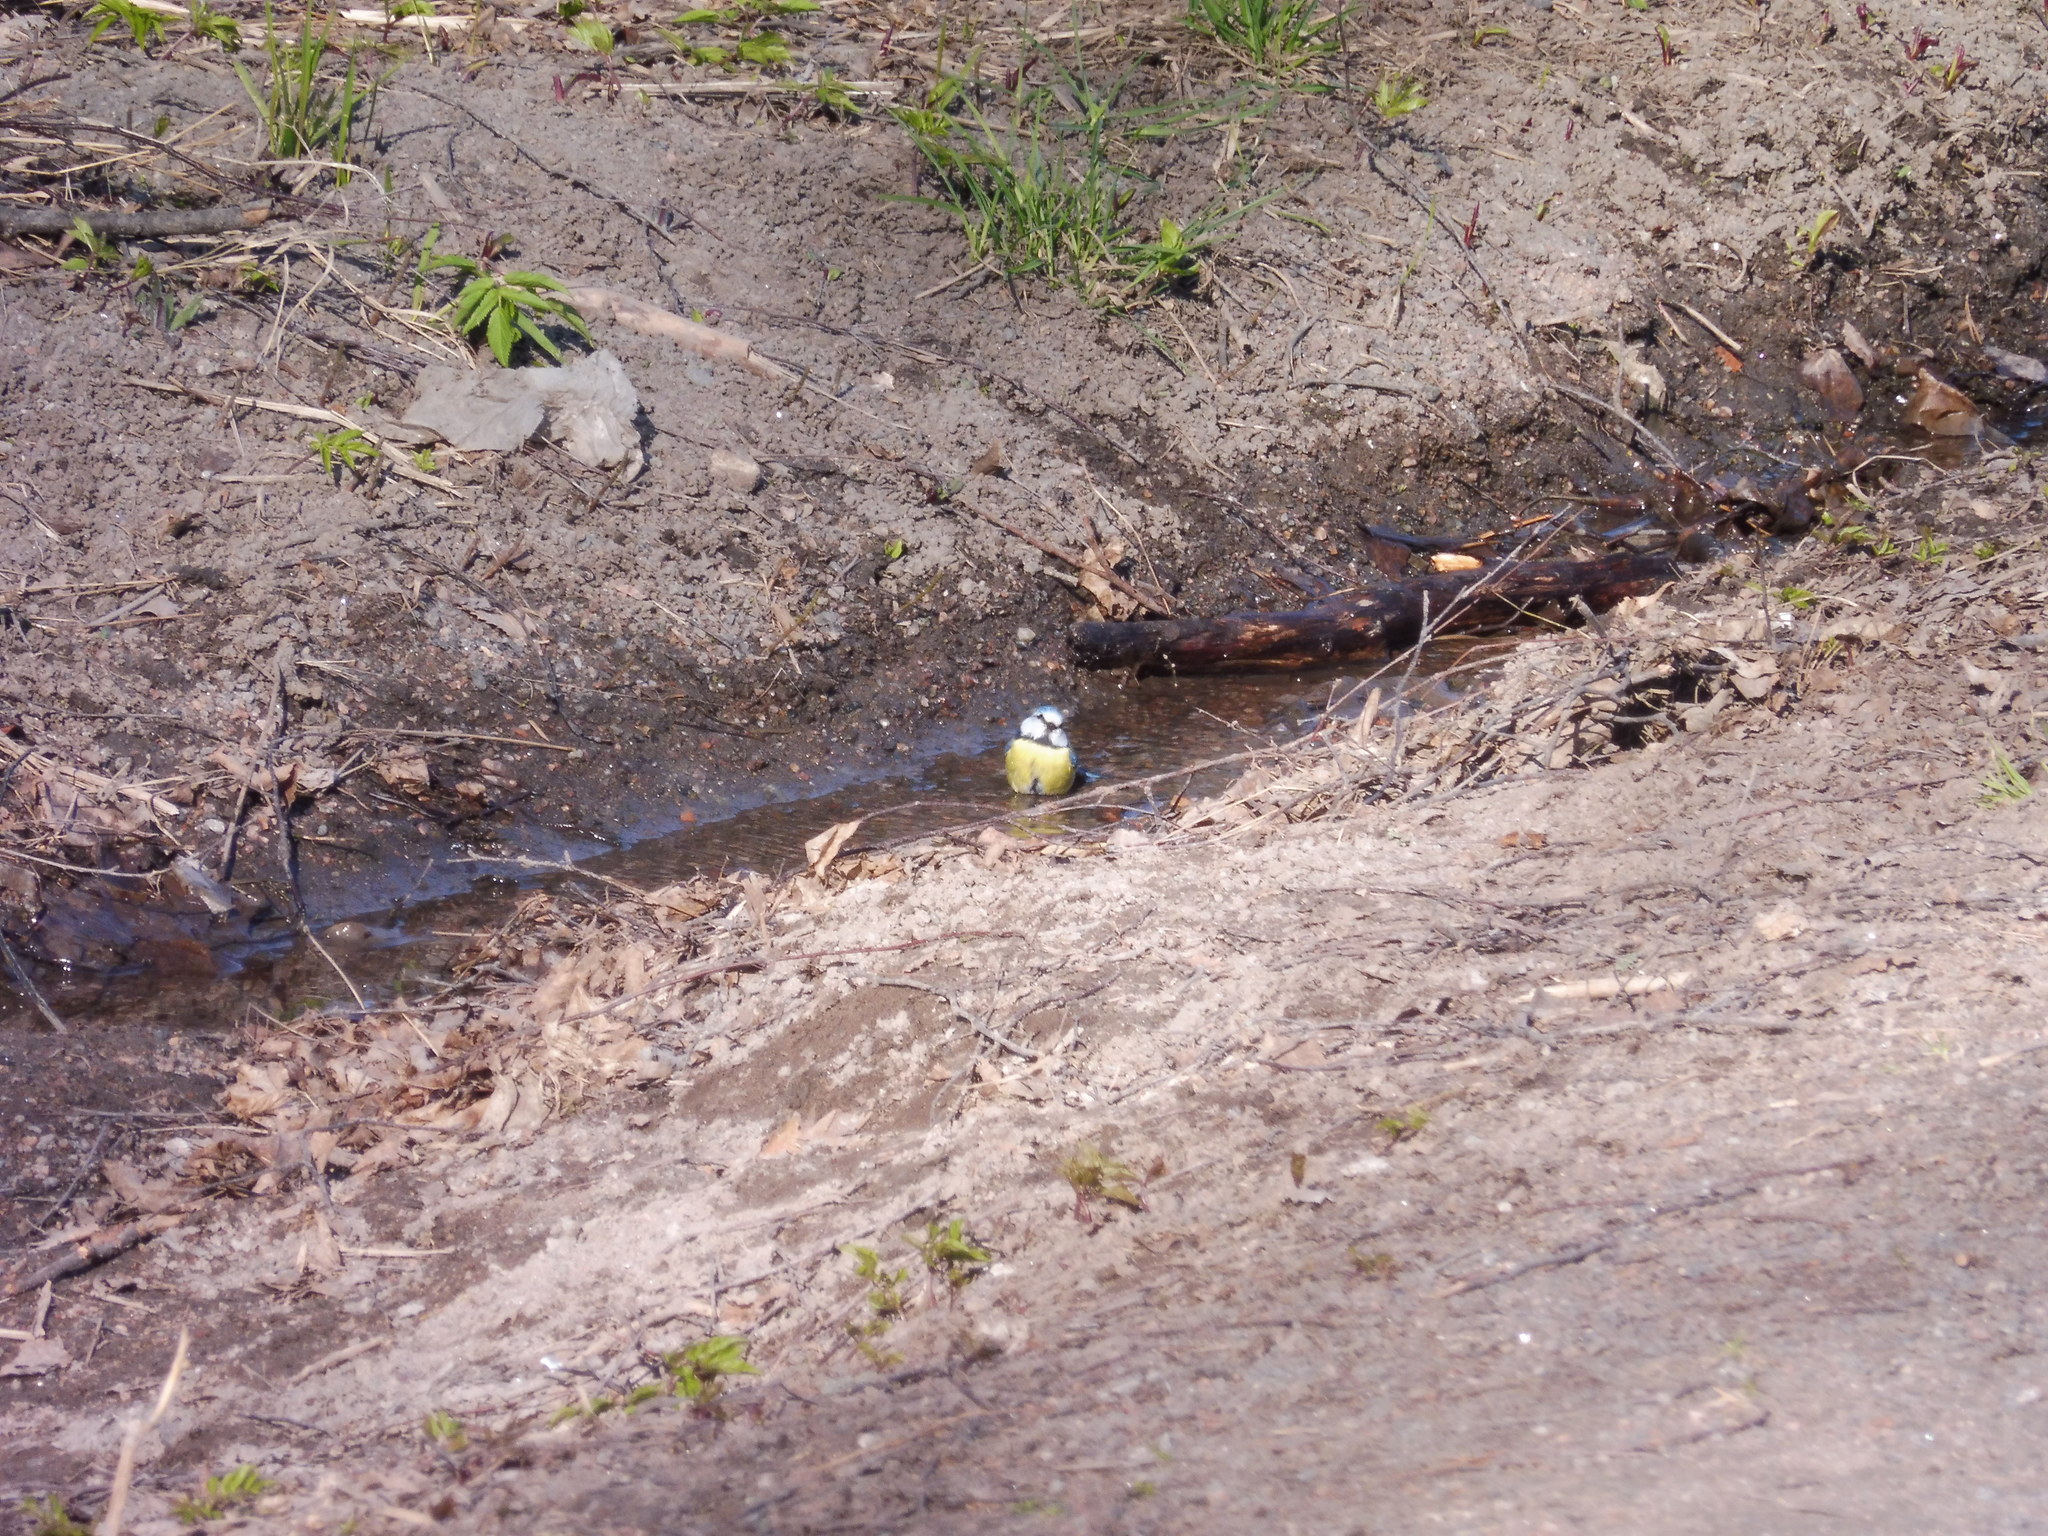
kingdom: Animalia
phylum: Chordata
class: Aves
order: Passeriformes
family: Paridae
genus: Cyanistes
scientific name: Cyanistes caeruleus
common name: Eurasian blue tit
